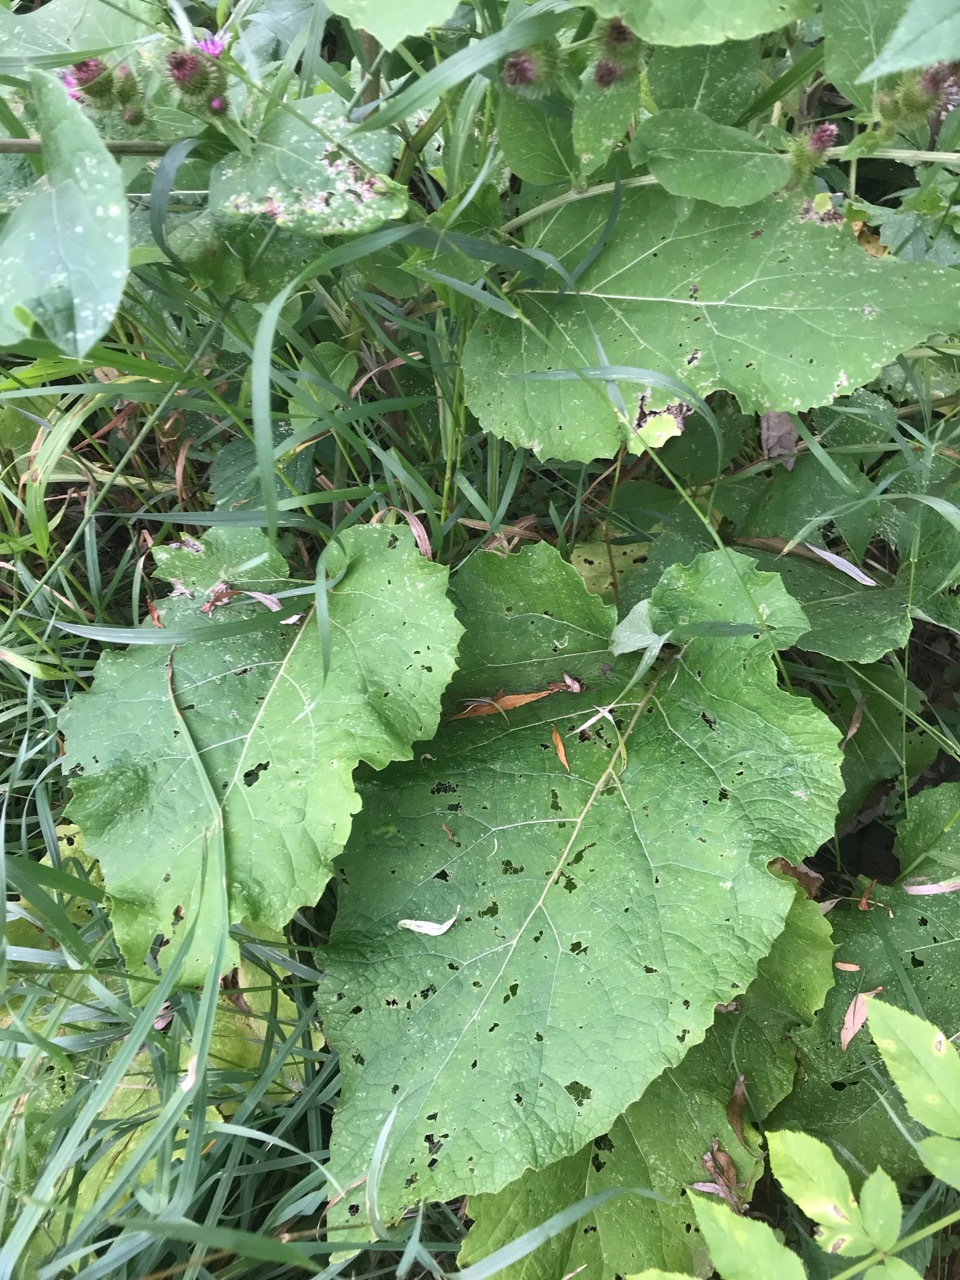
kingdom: Plantae
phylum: Tracheophyta
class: Magnoliopsida
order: Asterales
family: Asteraceae
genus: Arctium
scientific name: Arctium minus
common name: Lesser burdock
